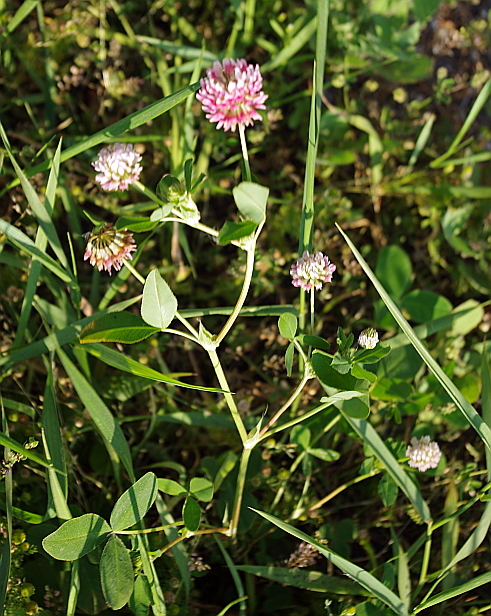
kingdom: Plantae
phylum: Tracheophyta
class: Magnoliopsida
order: Fabales
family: Fabaceae
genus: Trifolium
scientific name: Trifolium hybridum
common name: Alsike clover
